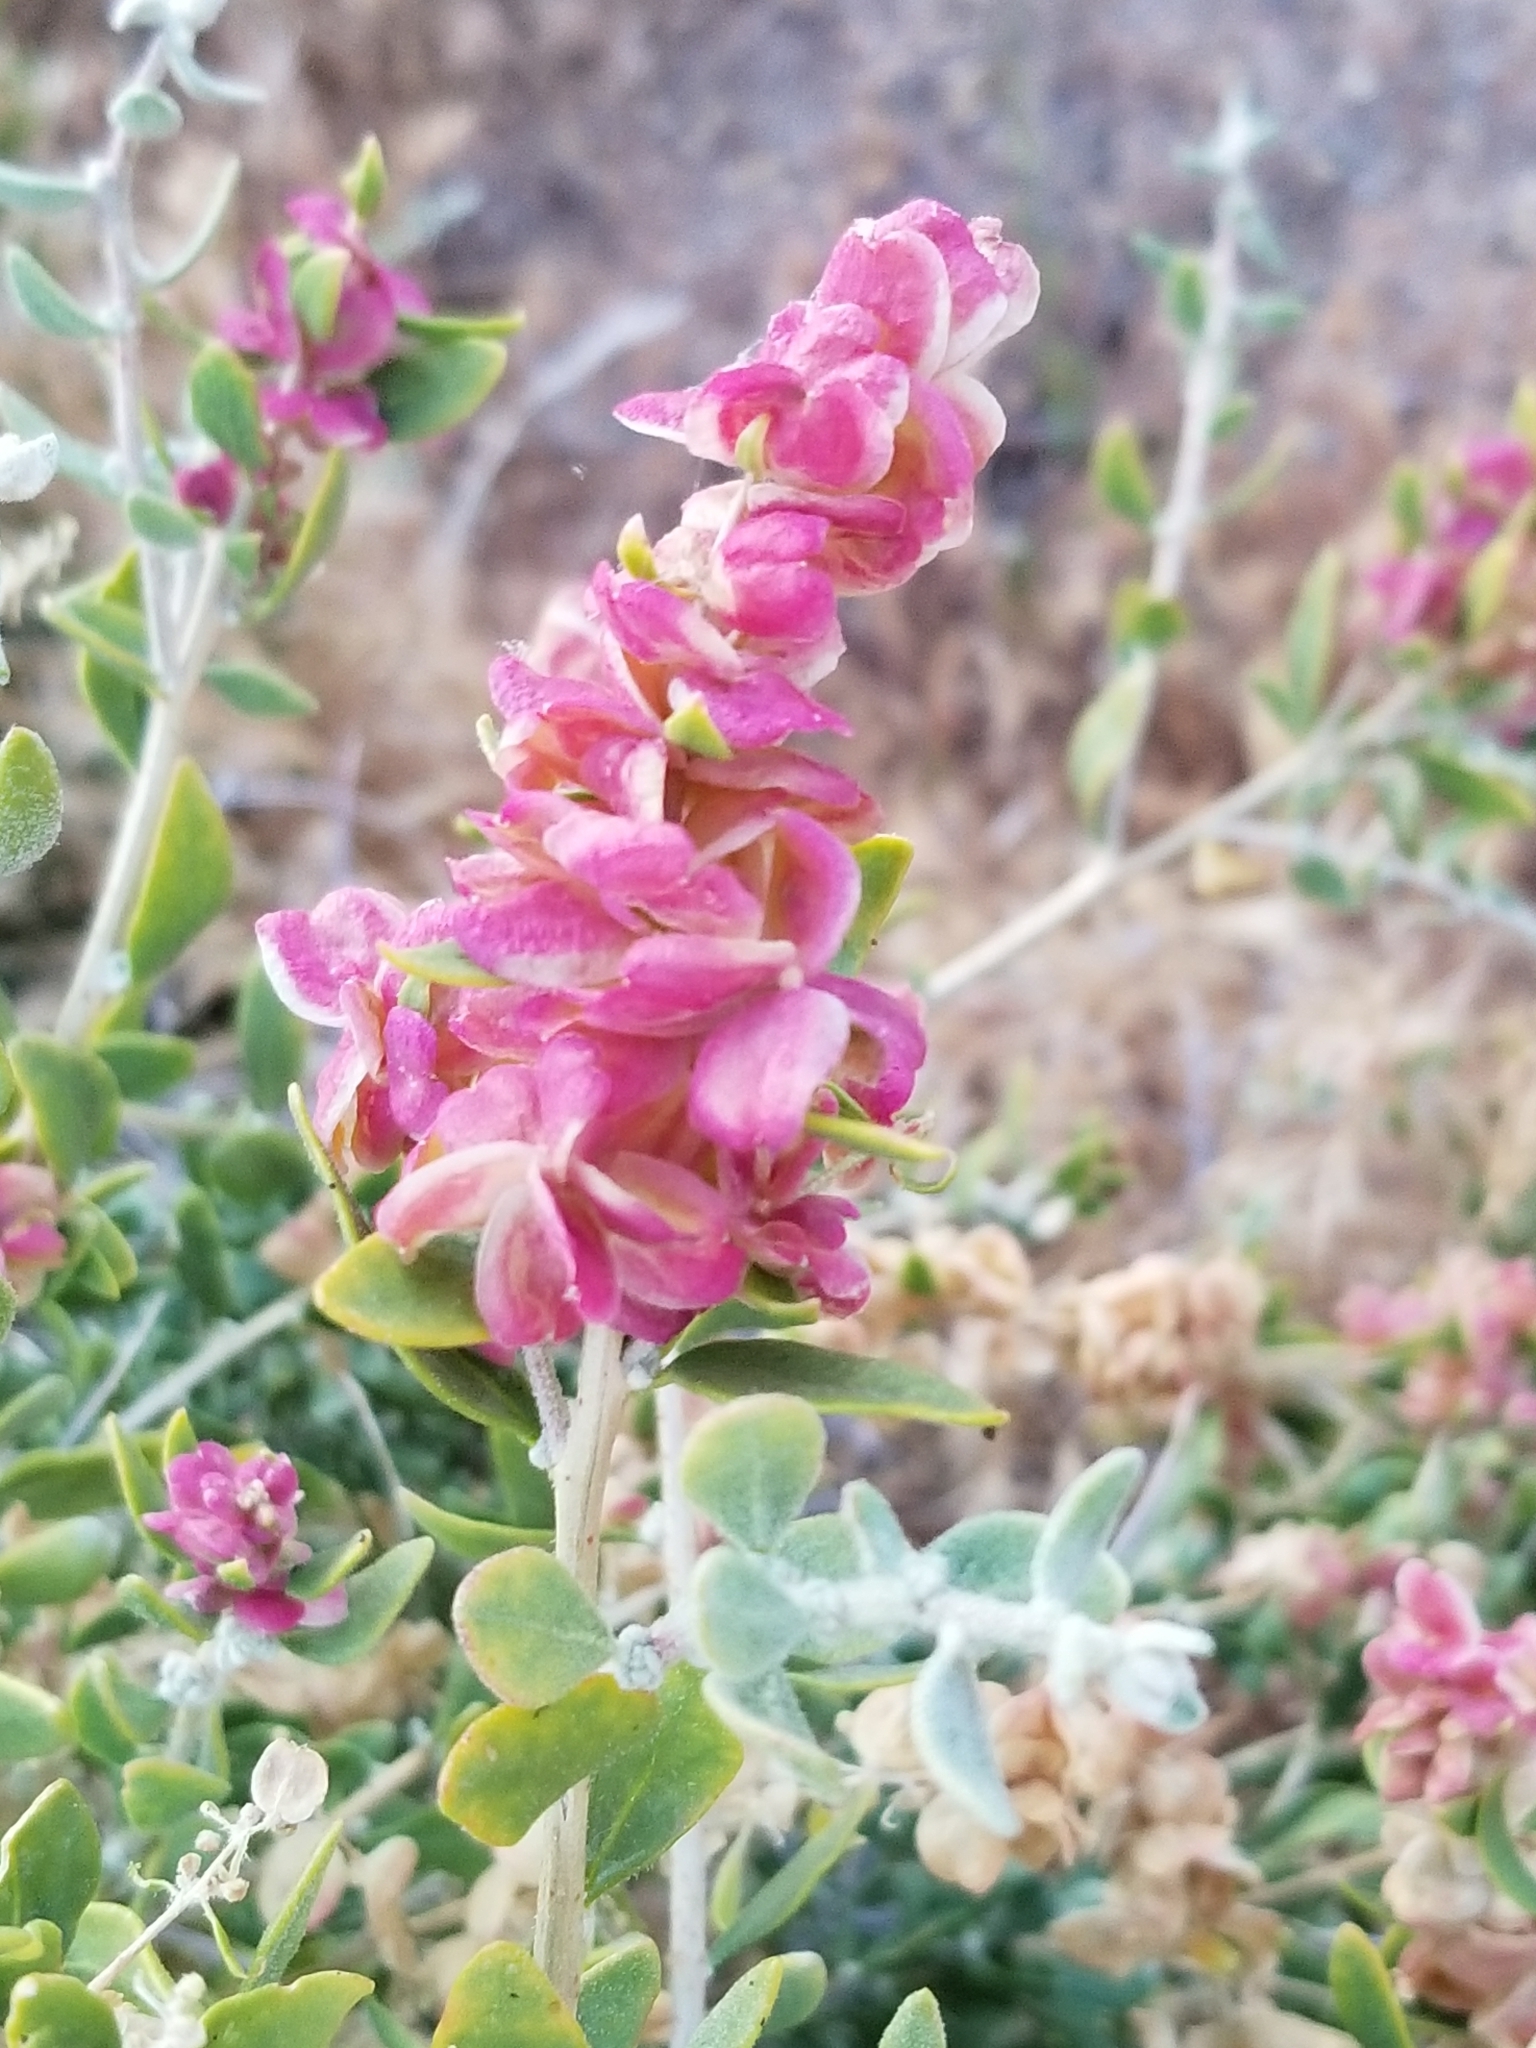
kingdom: Plantae
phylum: Tracheophyta
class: Magnoliopsida
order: Caryophyllales
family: Amaranthaceae
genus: Grayia
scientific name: Grayia spinosa
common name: Spiny hopsage
